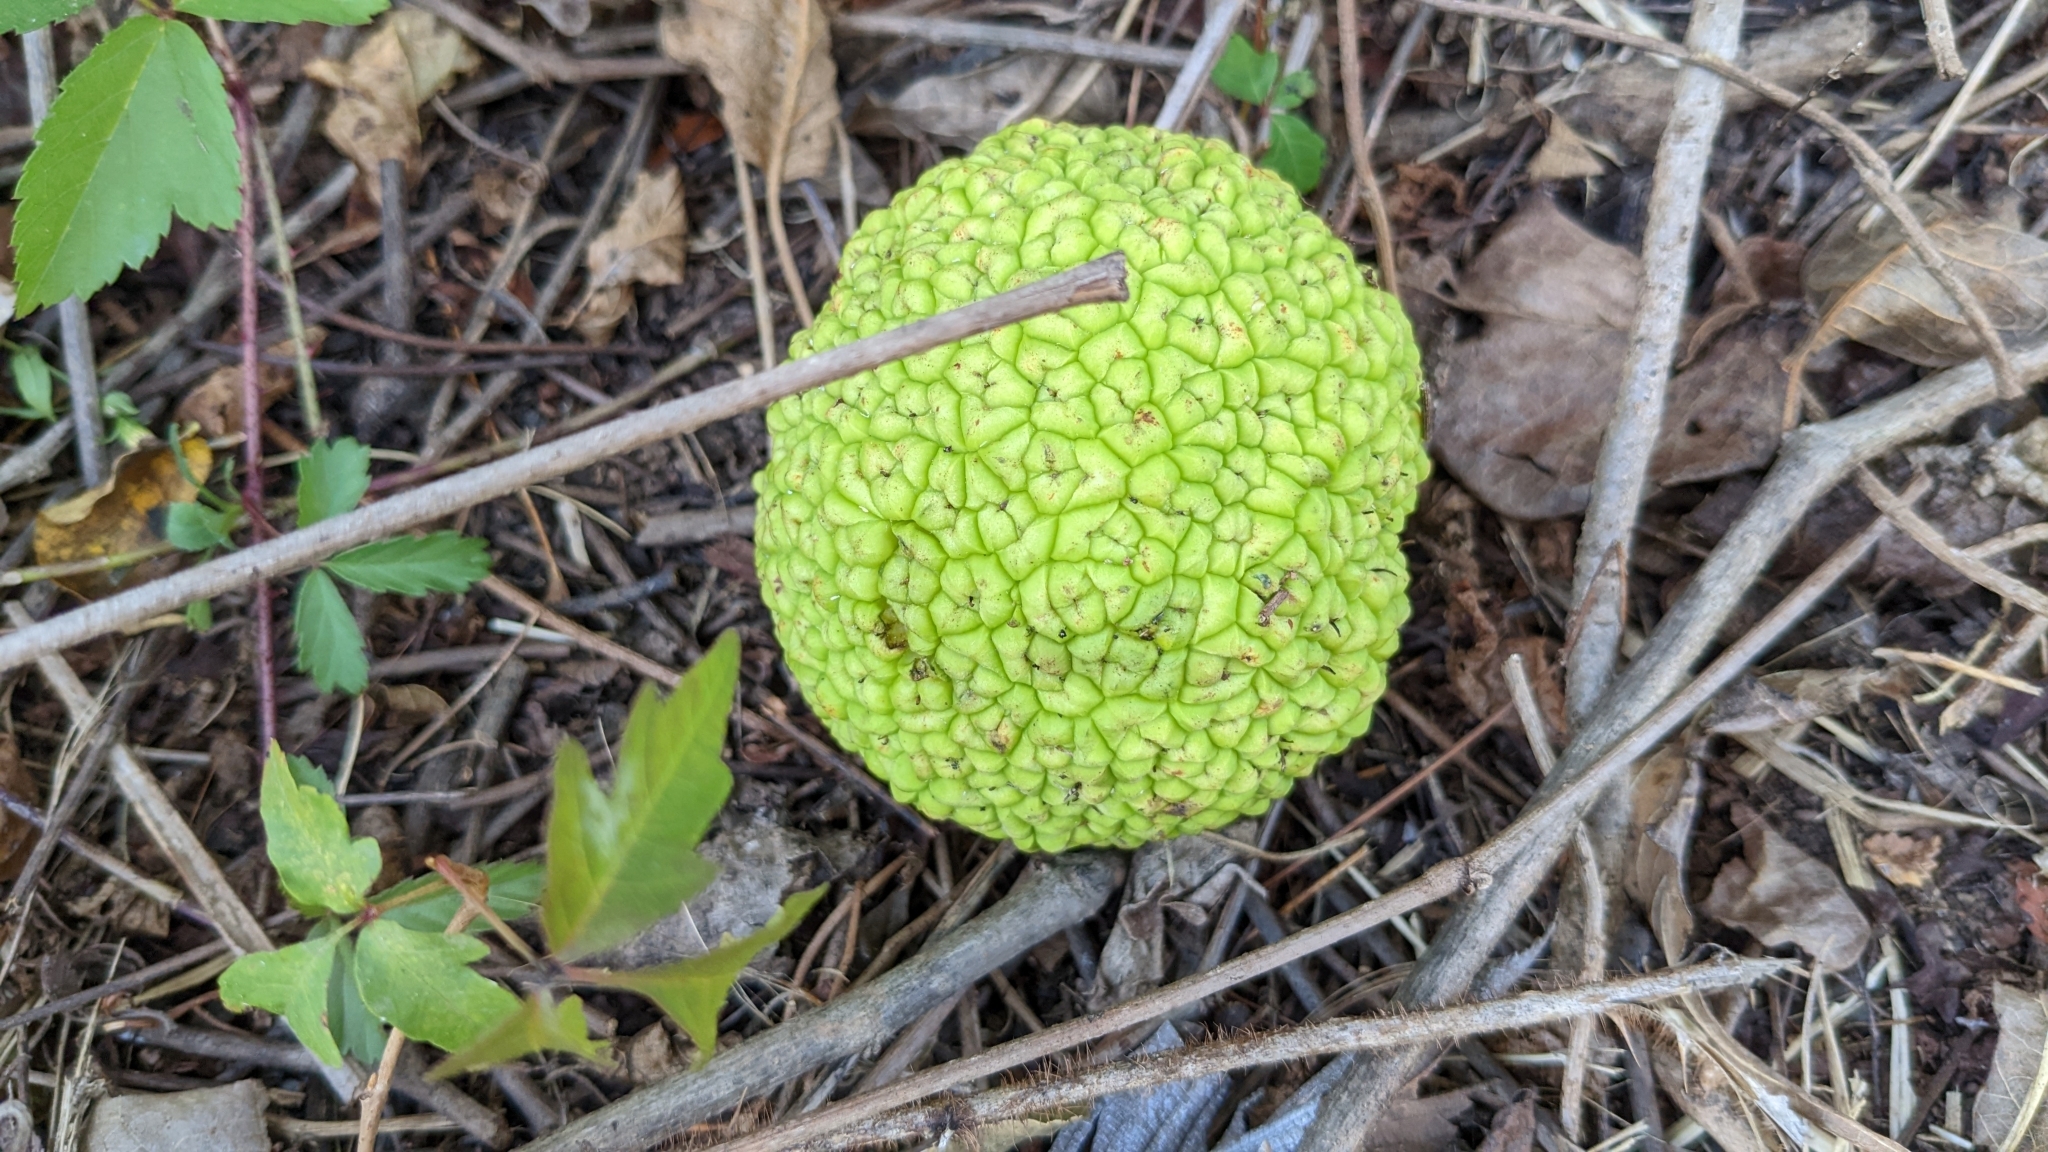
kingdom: Plantae
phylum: Tracheophyta
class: Magnoliopsida
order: Rosales
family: Moraceae
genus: Maclura
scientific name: Maclura pomifera
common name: Osage-orange
